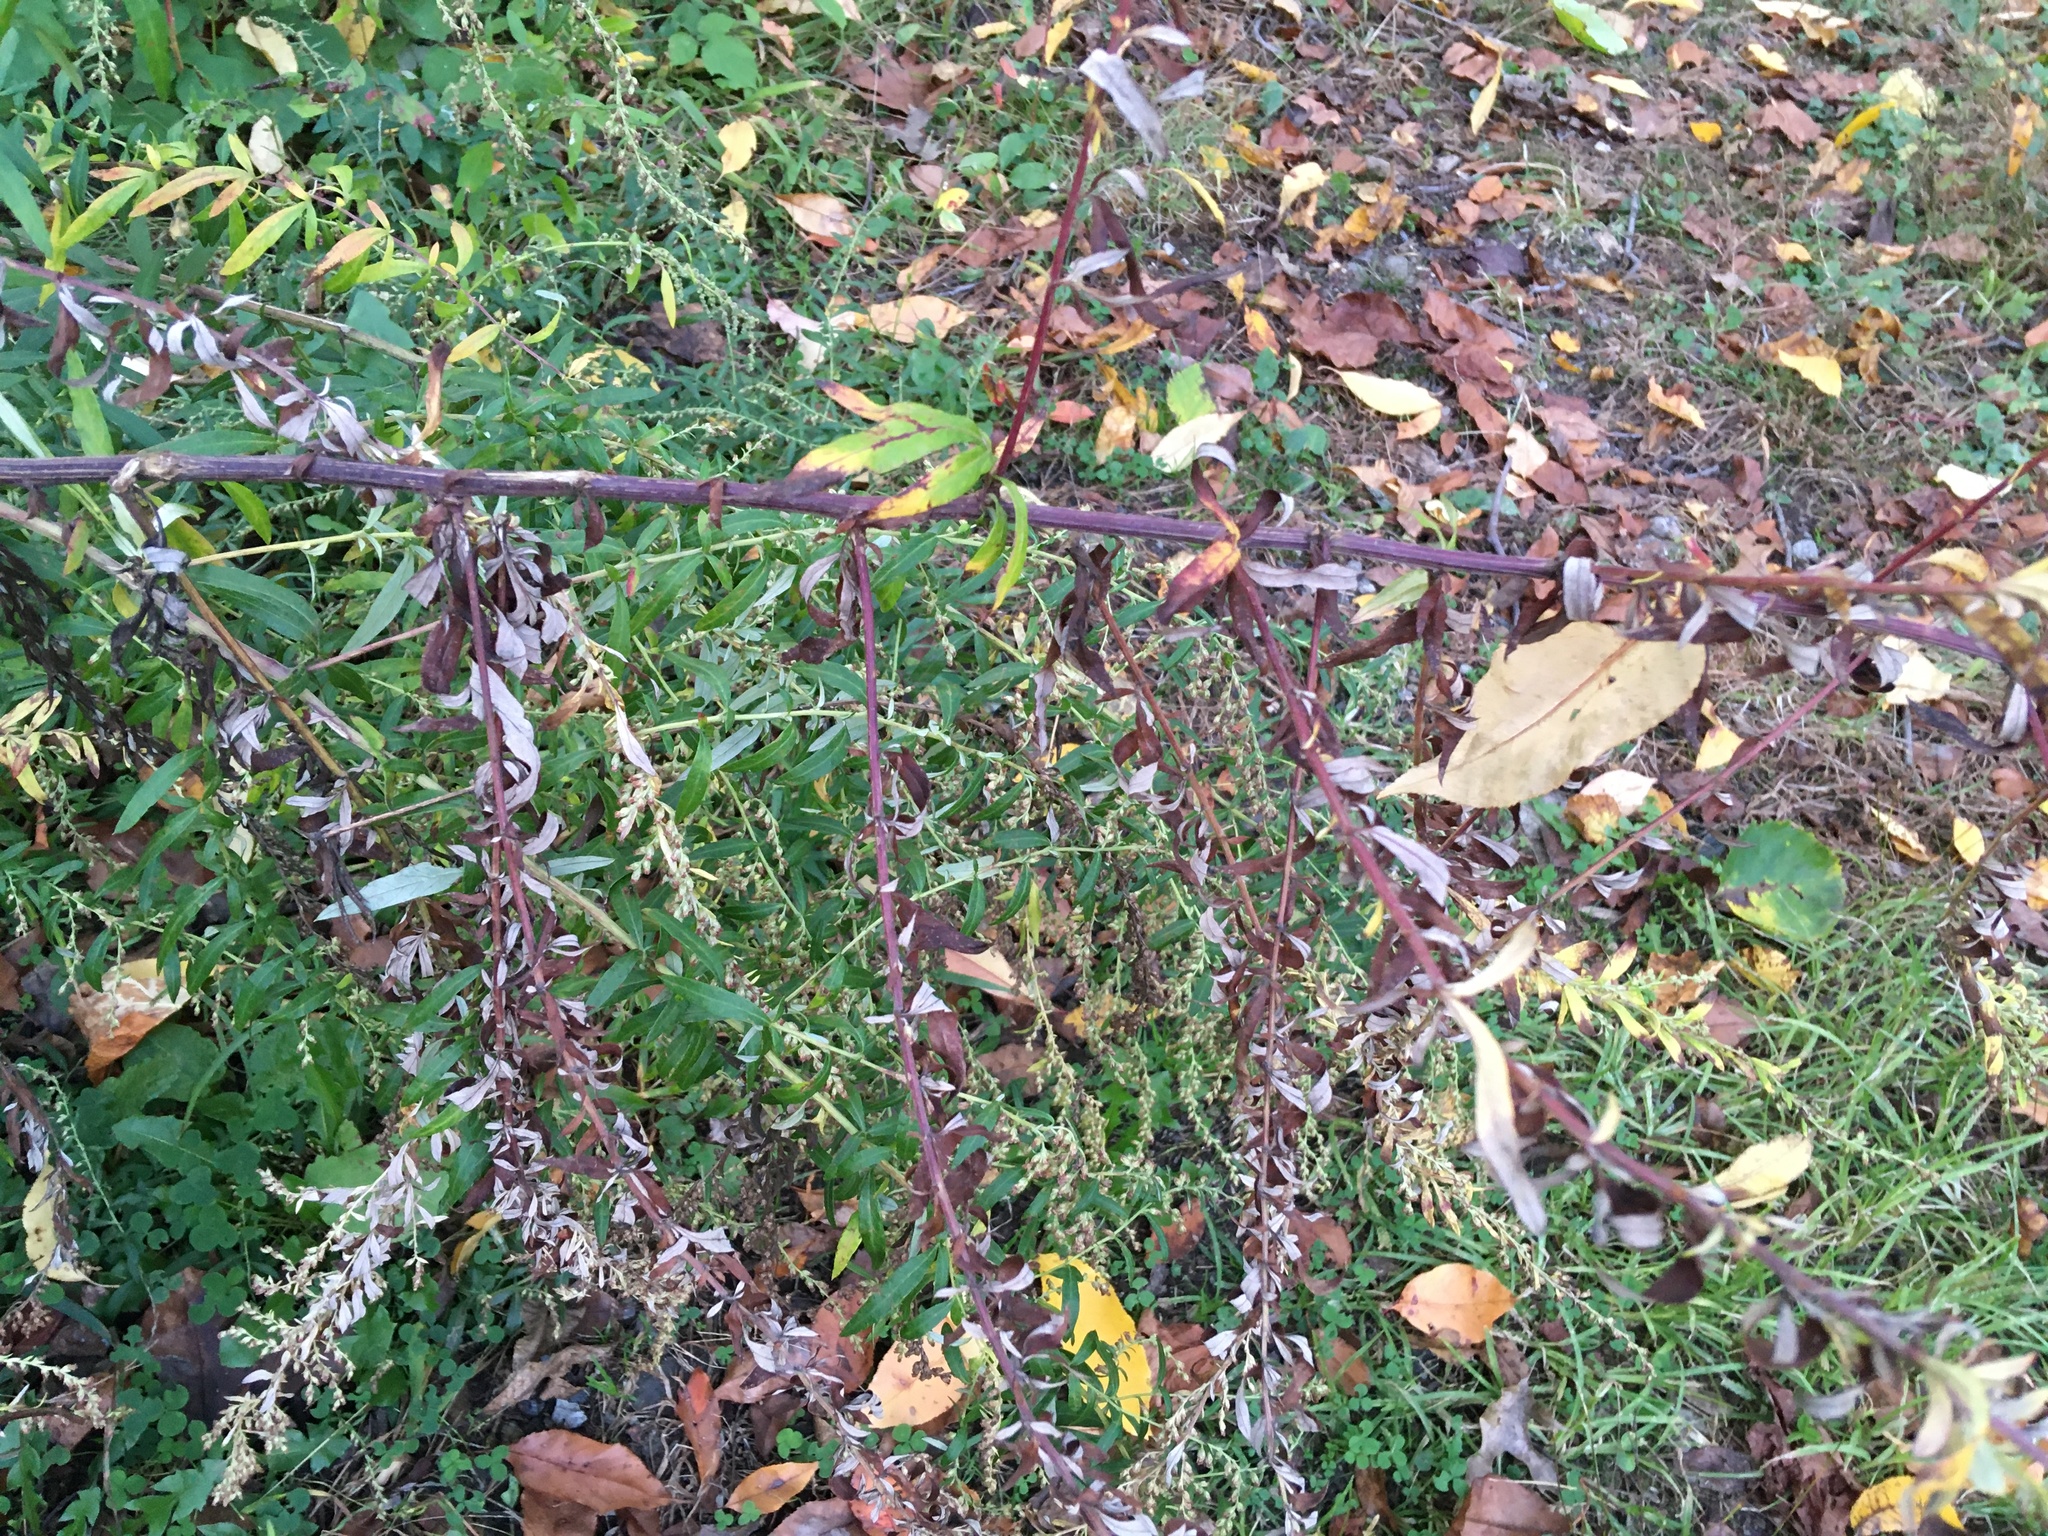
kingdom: Plantae
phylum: Tracheophyta
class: Magnoliopsida
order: Asterales
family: Asteraceae
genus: Artemisia
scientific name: Artemisia vulgaris
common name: Mugwort
